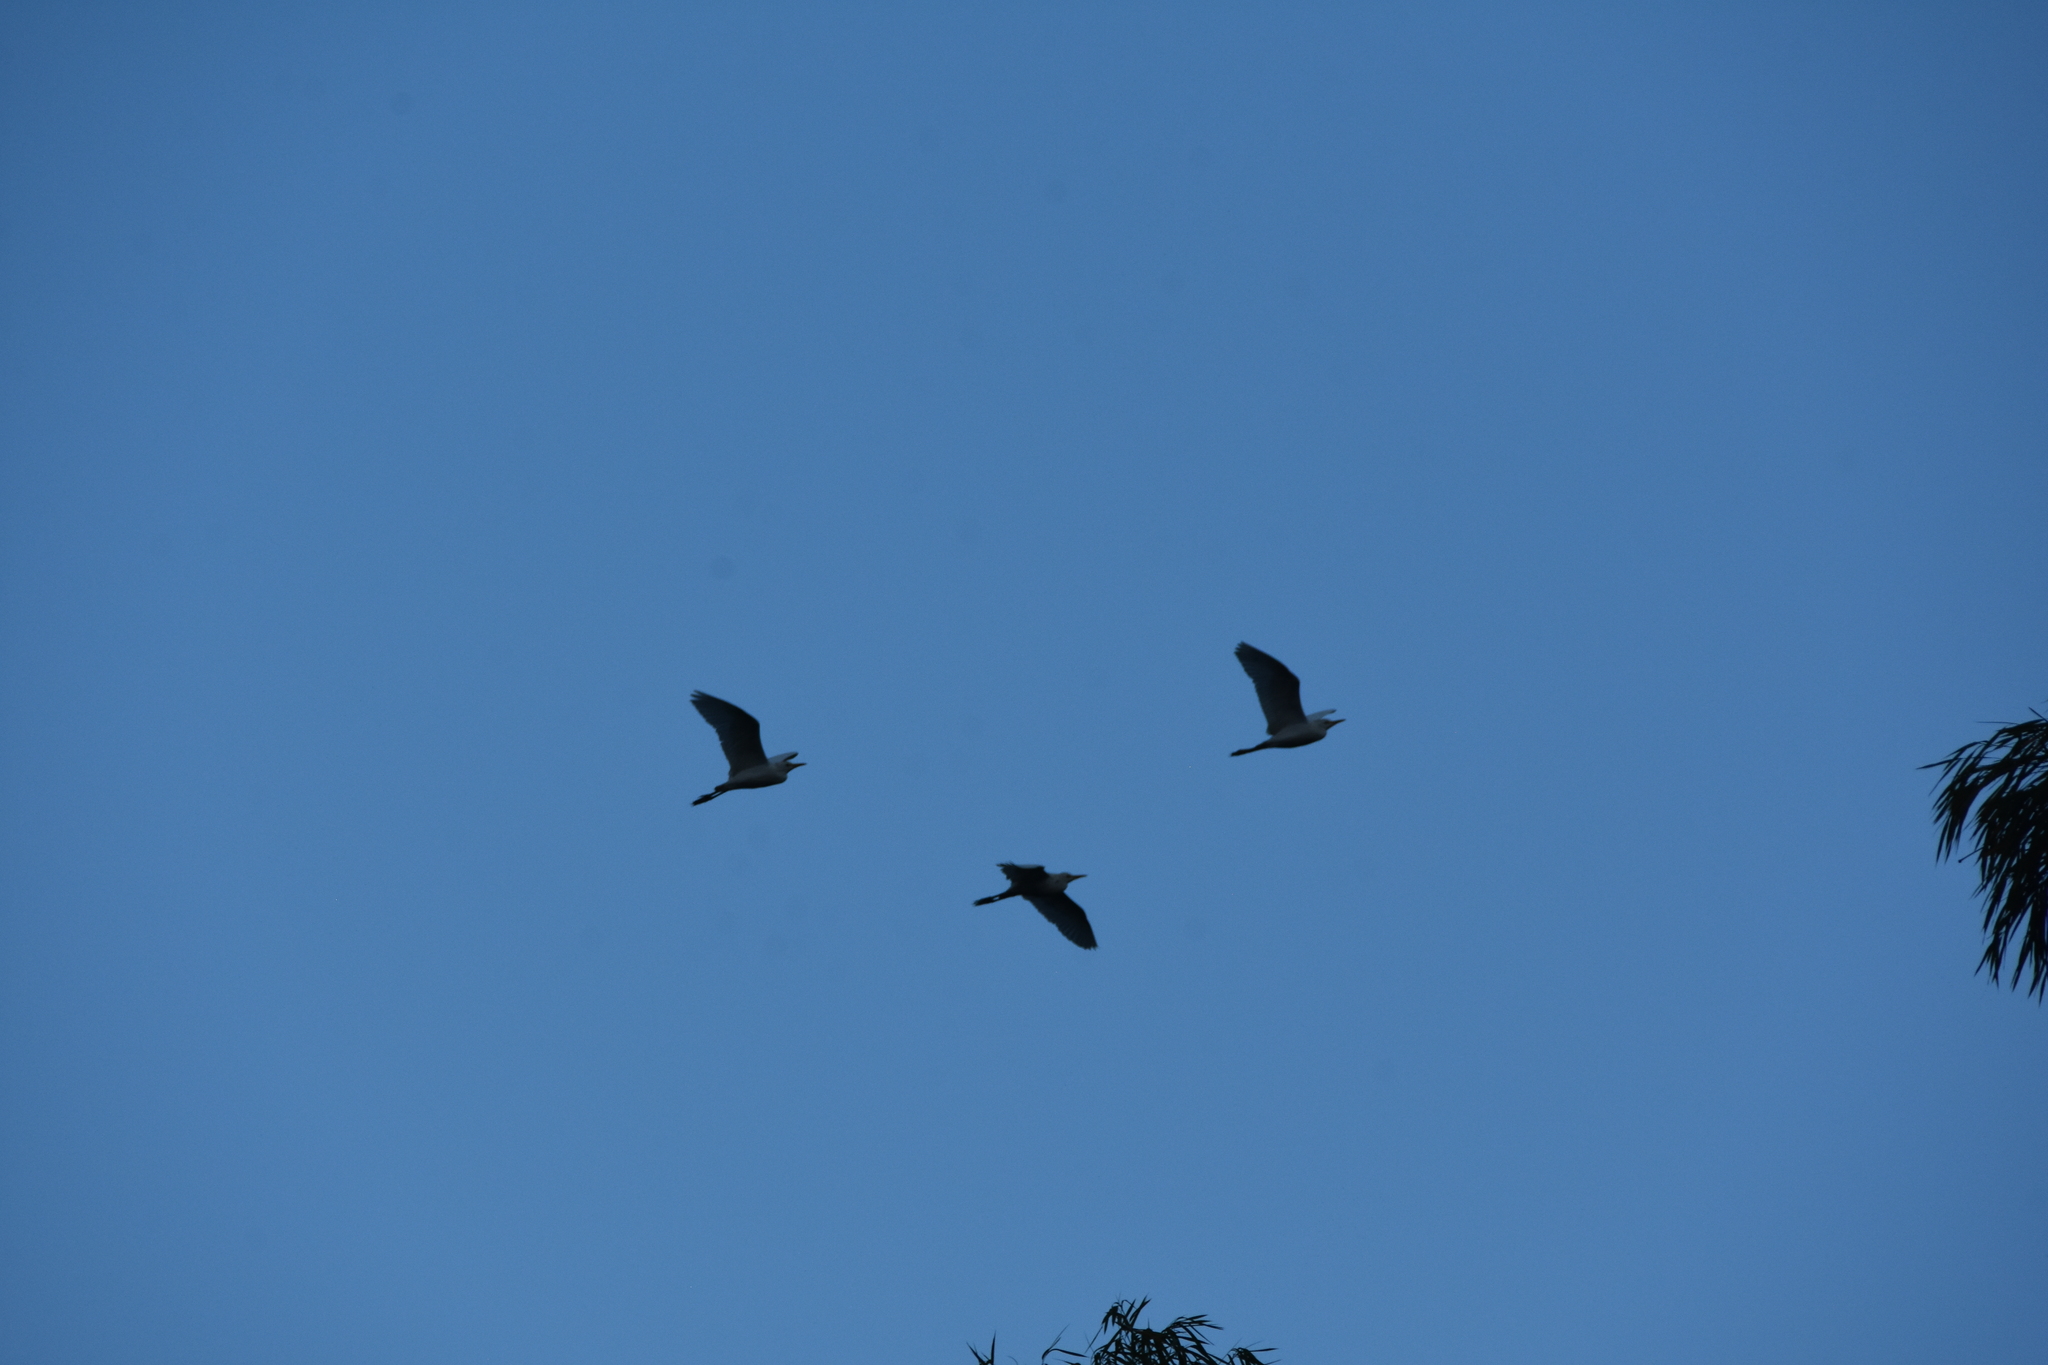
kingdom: Animalia
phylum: Chordata
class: Aves
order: Pelecaniformes
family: Ardeidae
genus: Bubulcus
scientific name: Bubulcus ibis
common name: Cattle egret
